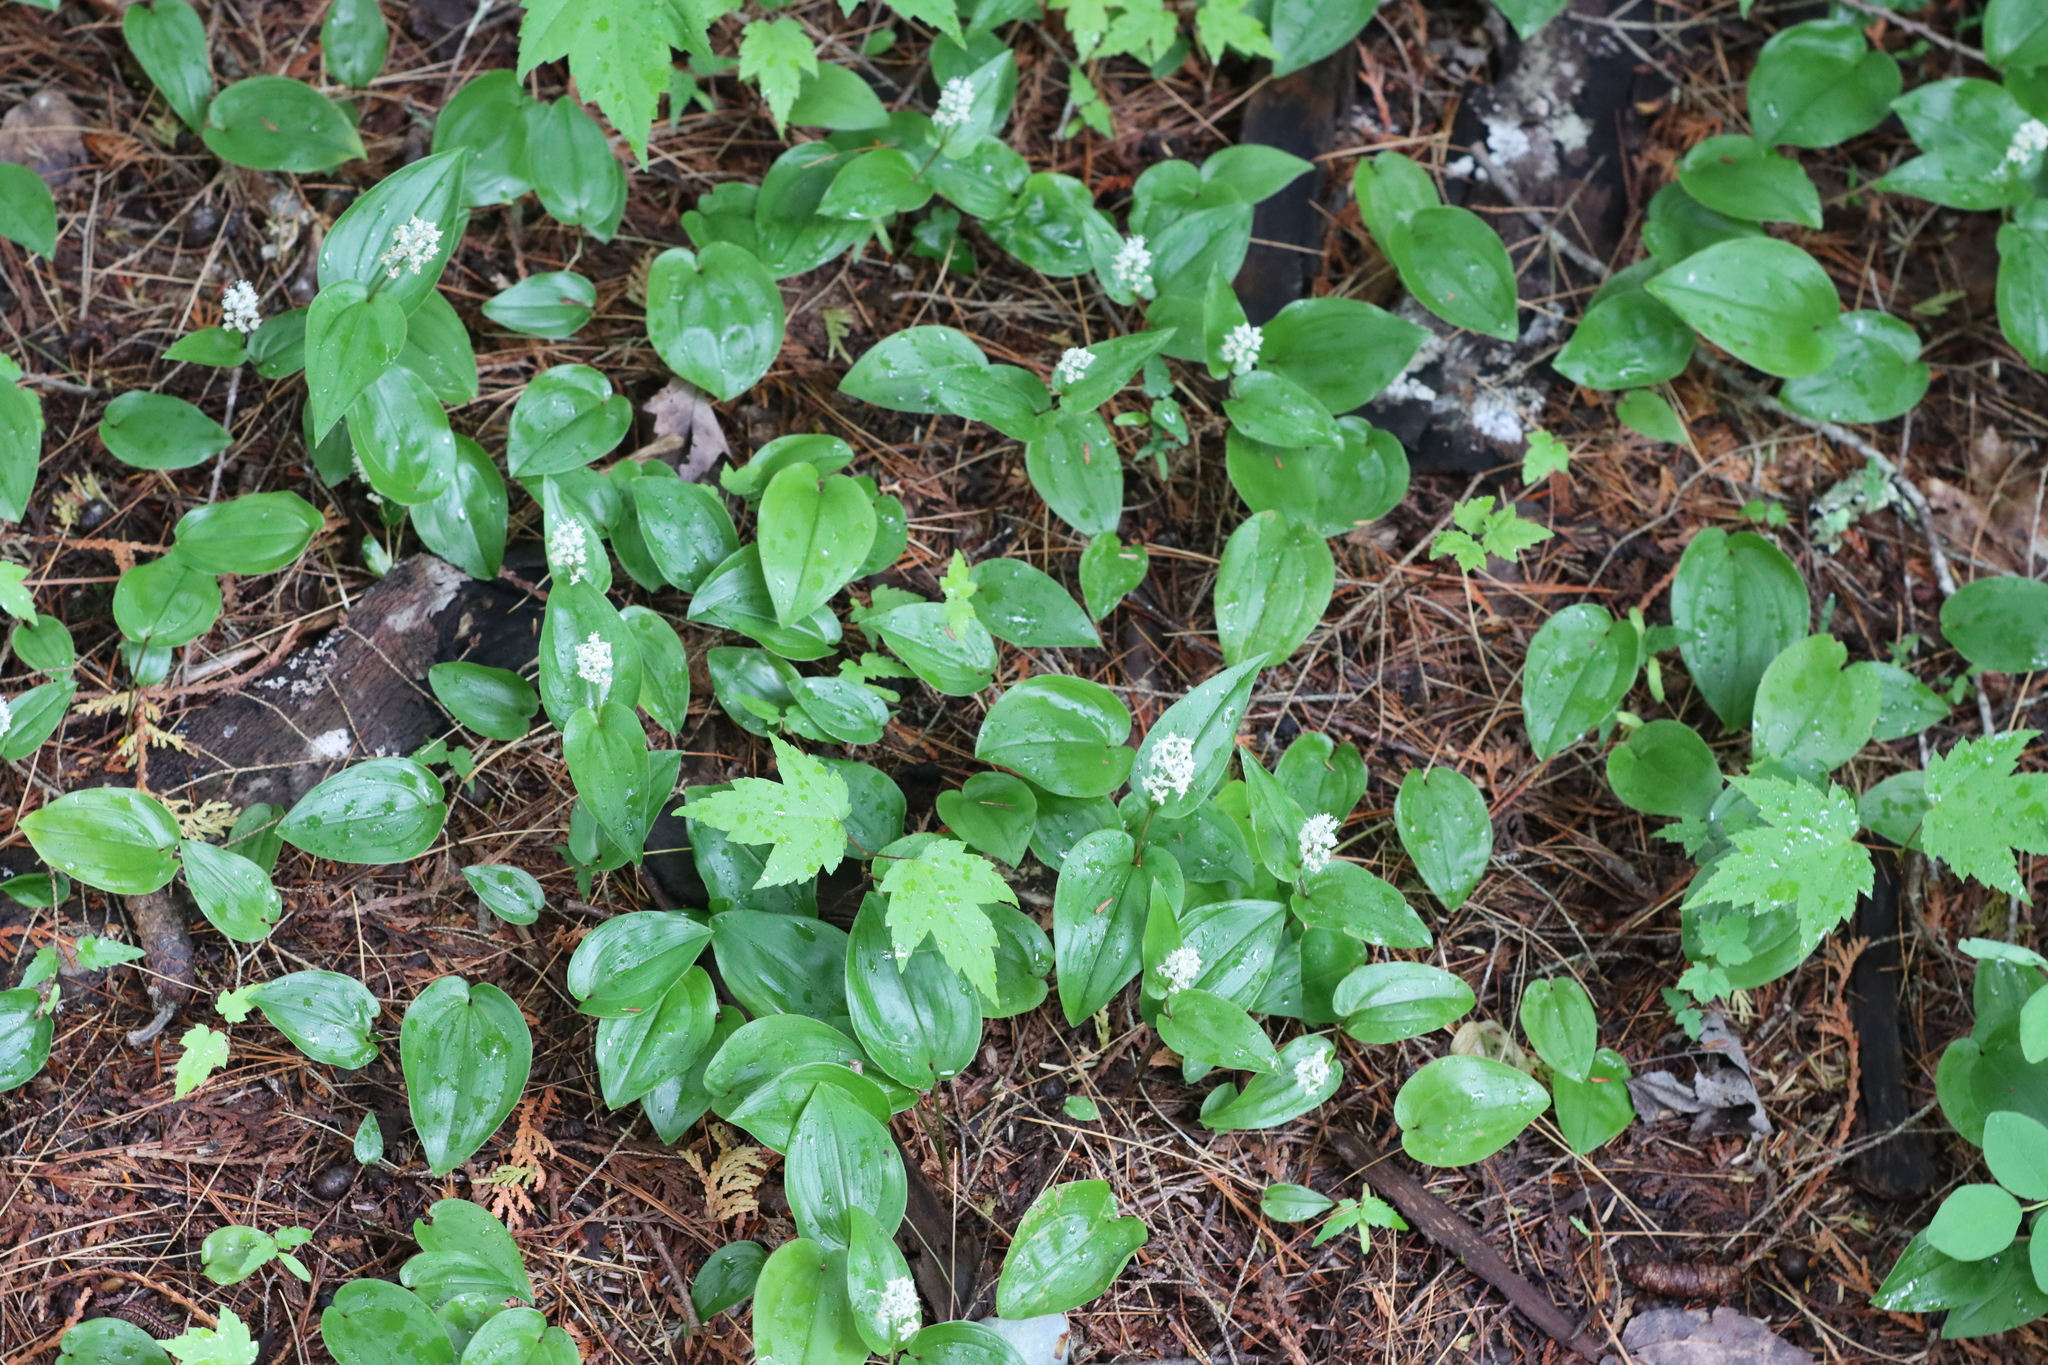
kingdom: Plantae
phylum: Tracheophyta
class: Liliopsida
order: Asparagales
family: Asparagaceae
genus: Maianthemum
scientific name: Maianthemum canadense
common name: False lily-of-the-valley
